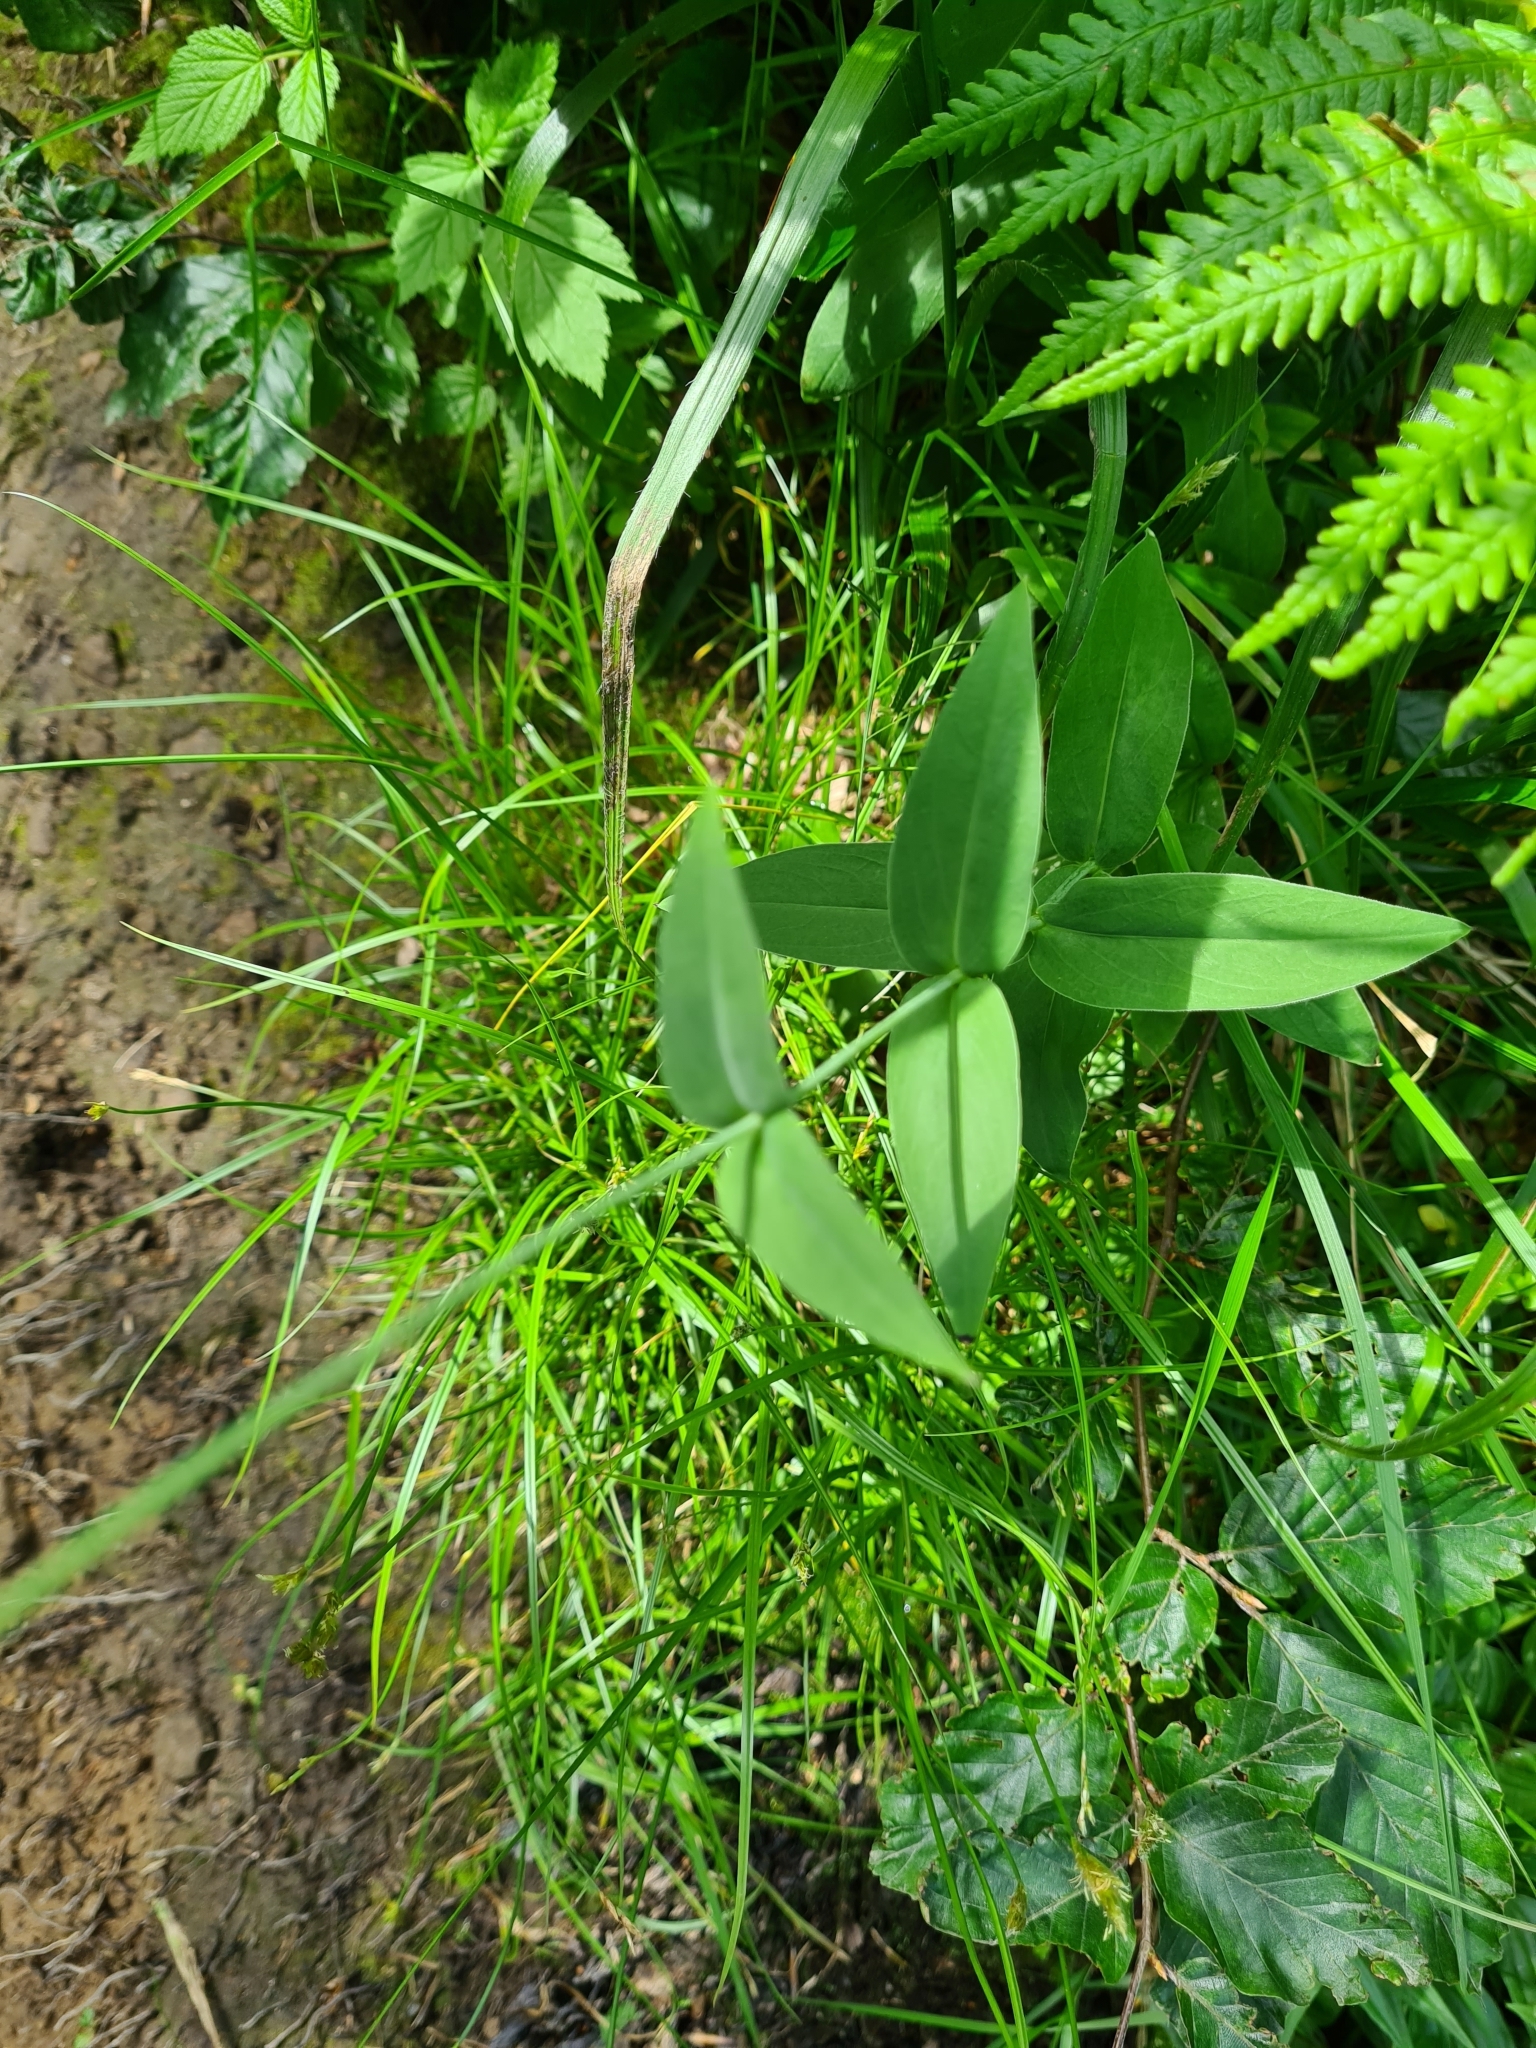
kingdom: Plantae
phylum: Tracheophyta
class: Magnoliopsida
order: Caryophyllales
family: Caryophyllaceae
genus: Silene
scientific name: Silene vulgaris
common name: Bladder campion
